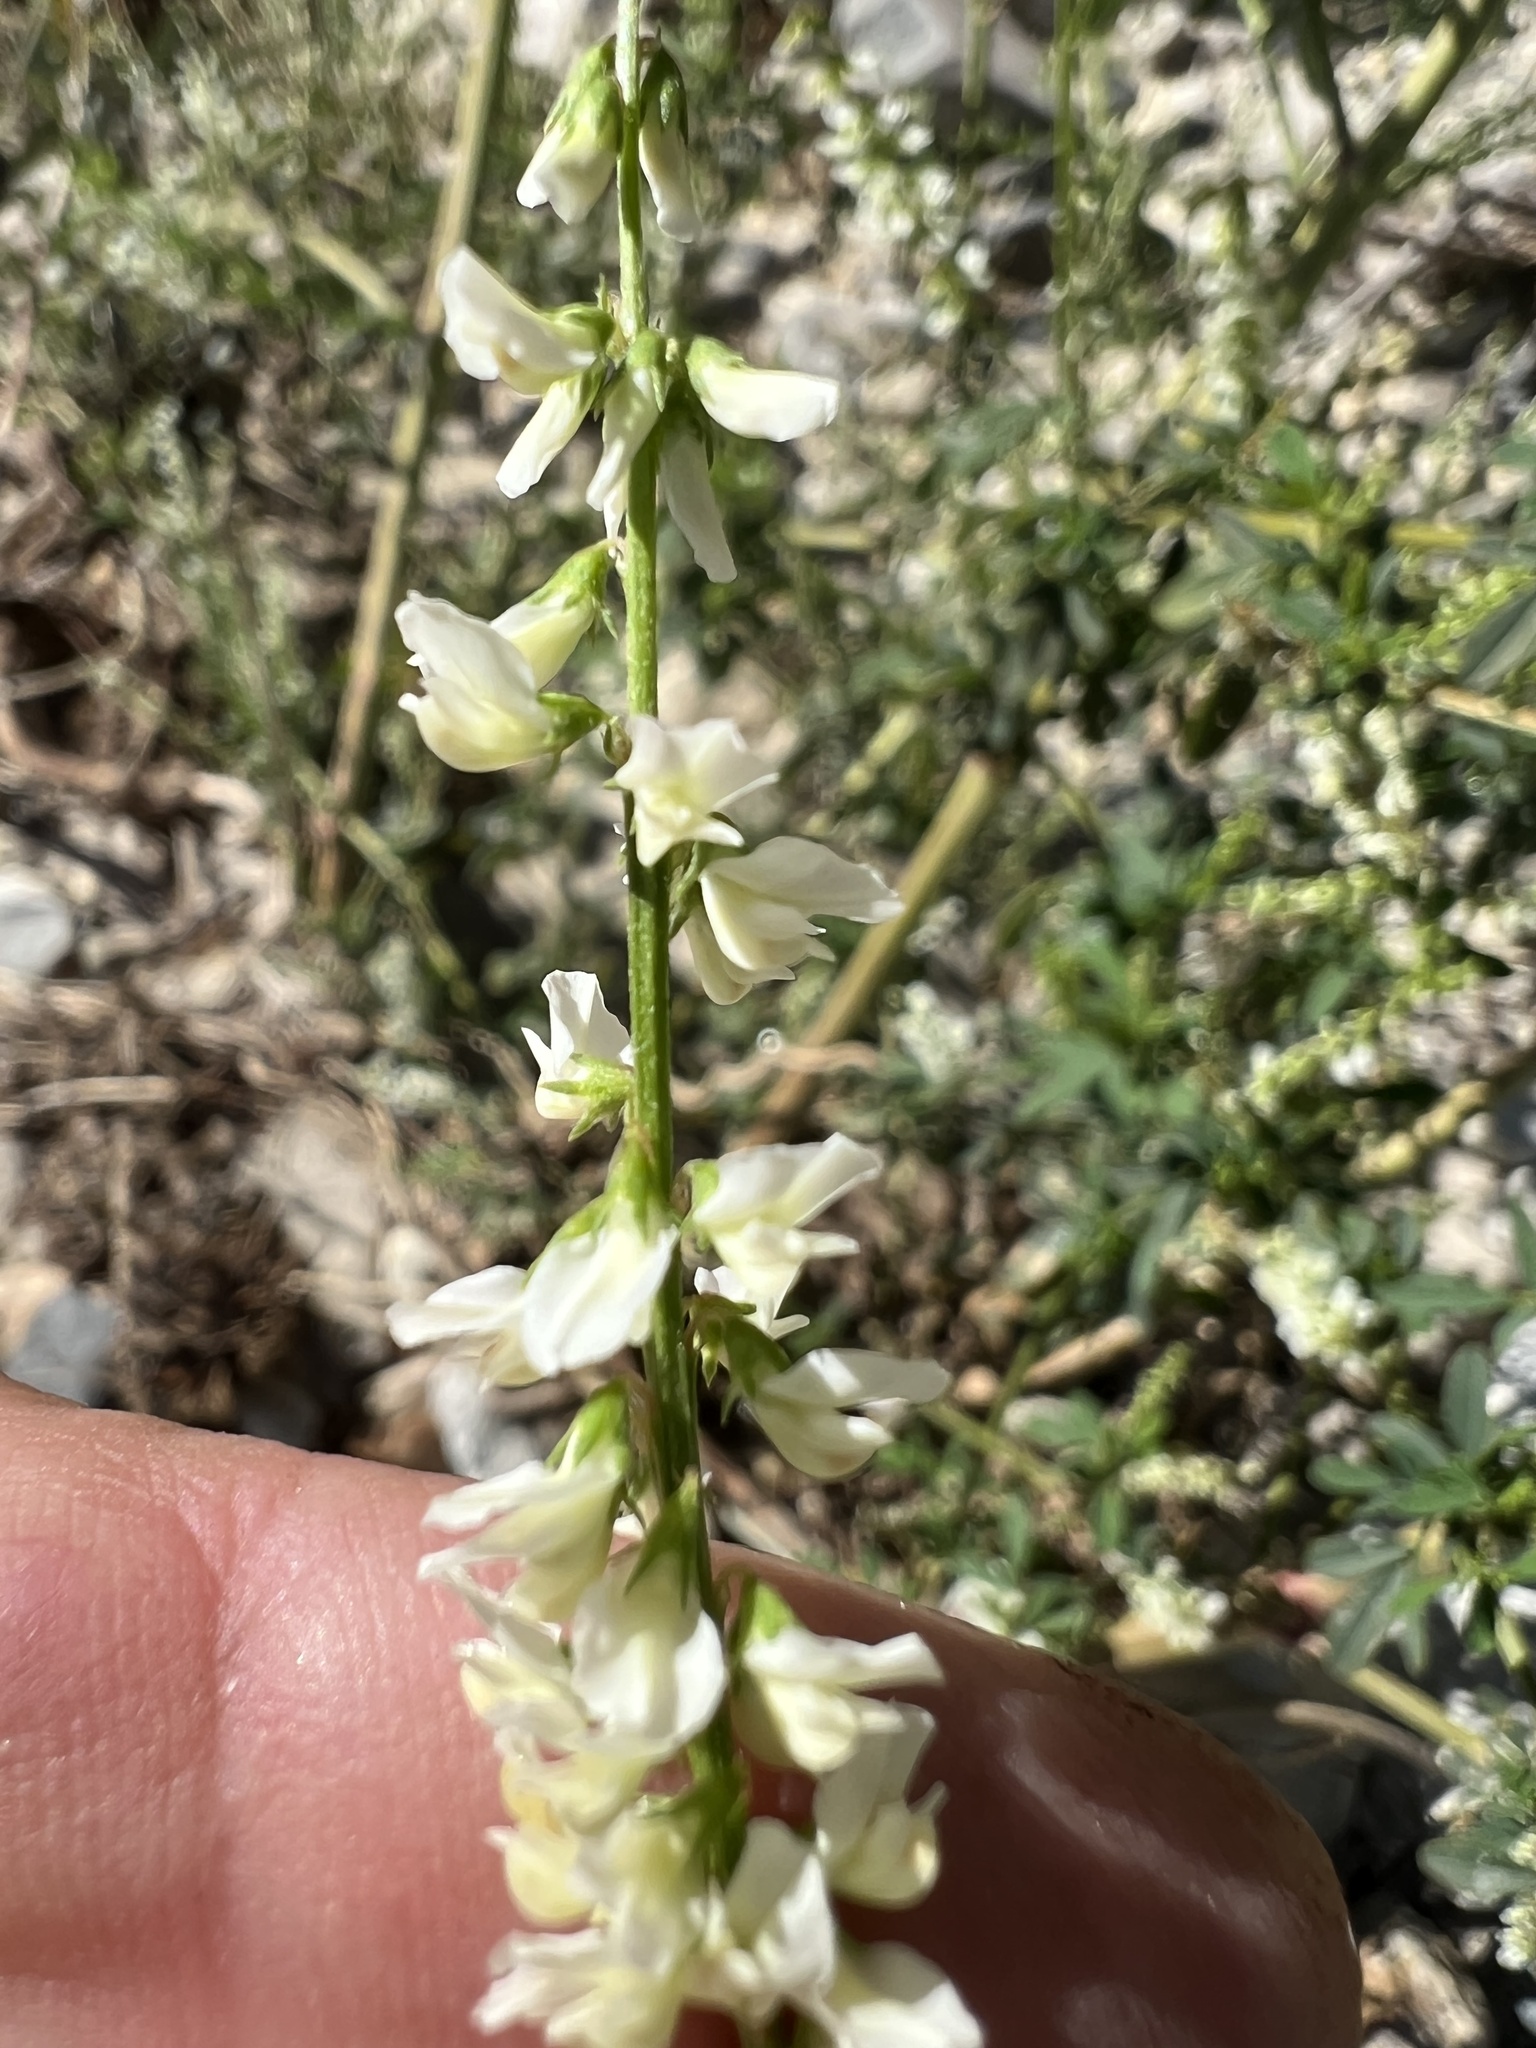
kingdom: Plantae
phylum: Tracheophyta
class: Magnoliopsida
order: Fabales
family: Fabaceae
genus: Melilotus
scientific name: Melilotus albus
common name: White melilot
